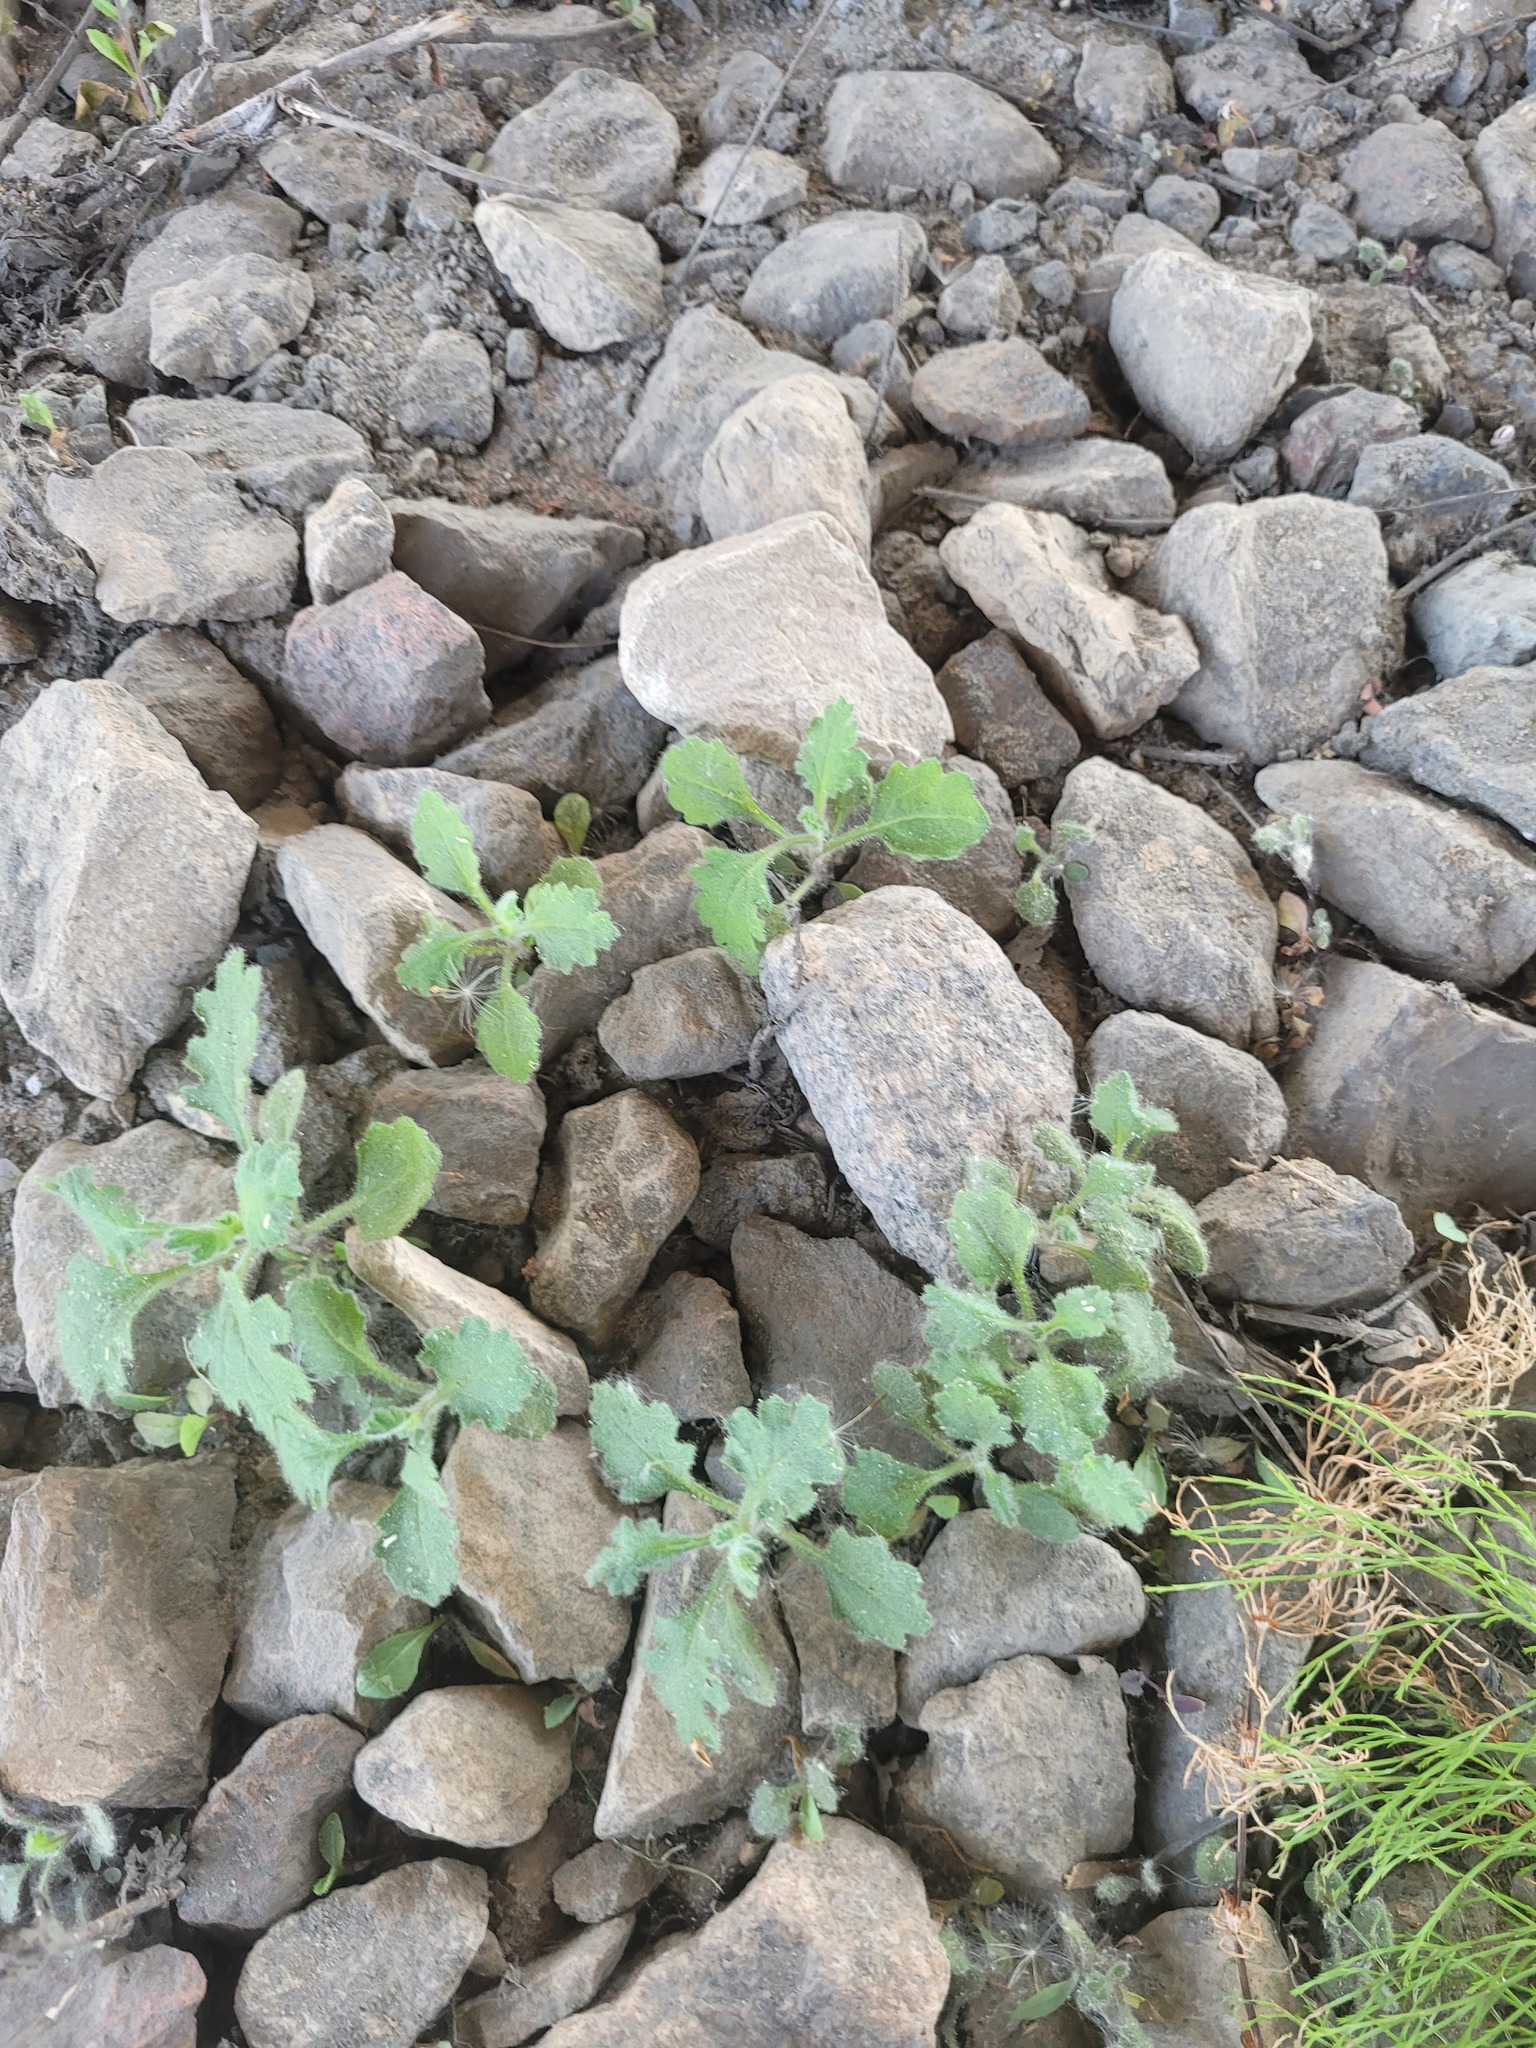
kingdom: Plantae
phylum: Tracheophyta
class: Magnoliopsida
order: Asterales
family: Asteraceae
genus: Senecio
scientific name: Senecio viscosus
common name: Sticky groundsel
